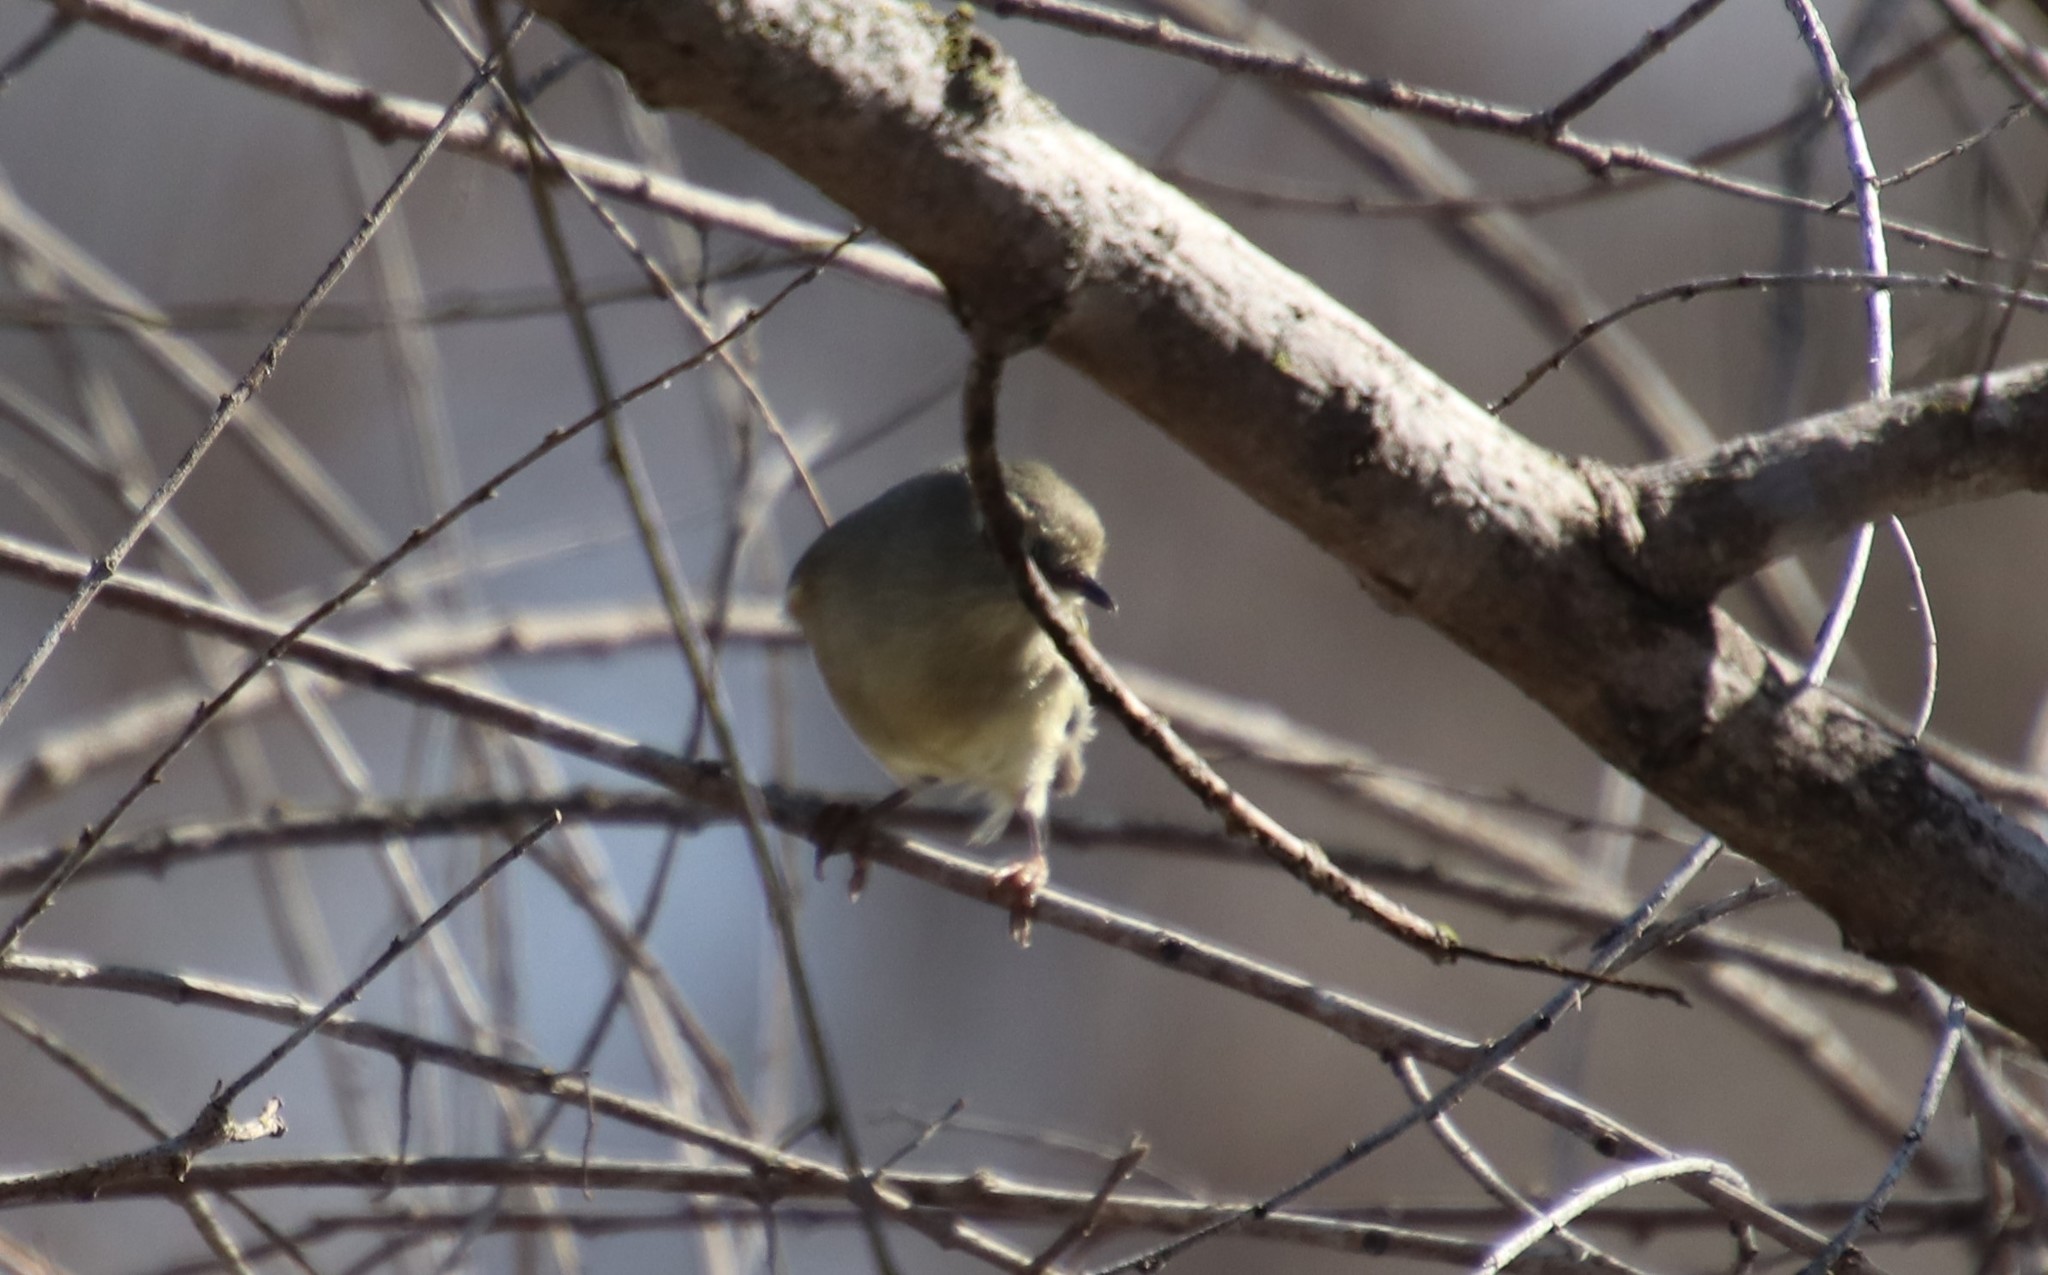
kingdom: Animalia
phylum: Chordata
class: Aves
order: Passeriformes
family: Regulidae
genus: Regulus
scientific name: Regulus calendula
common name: Ruby-crowned kinglet
